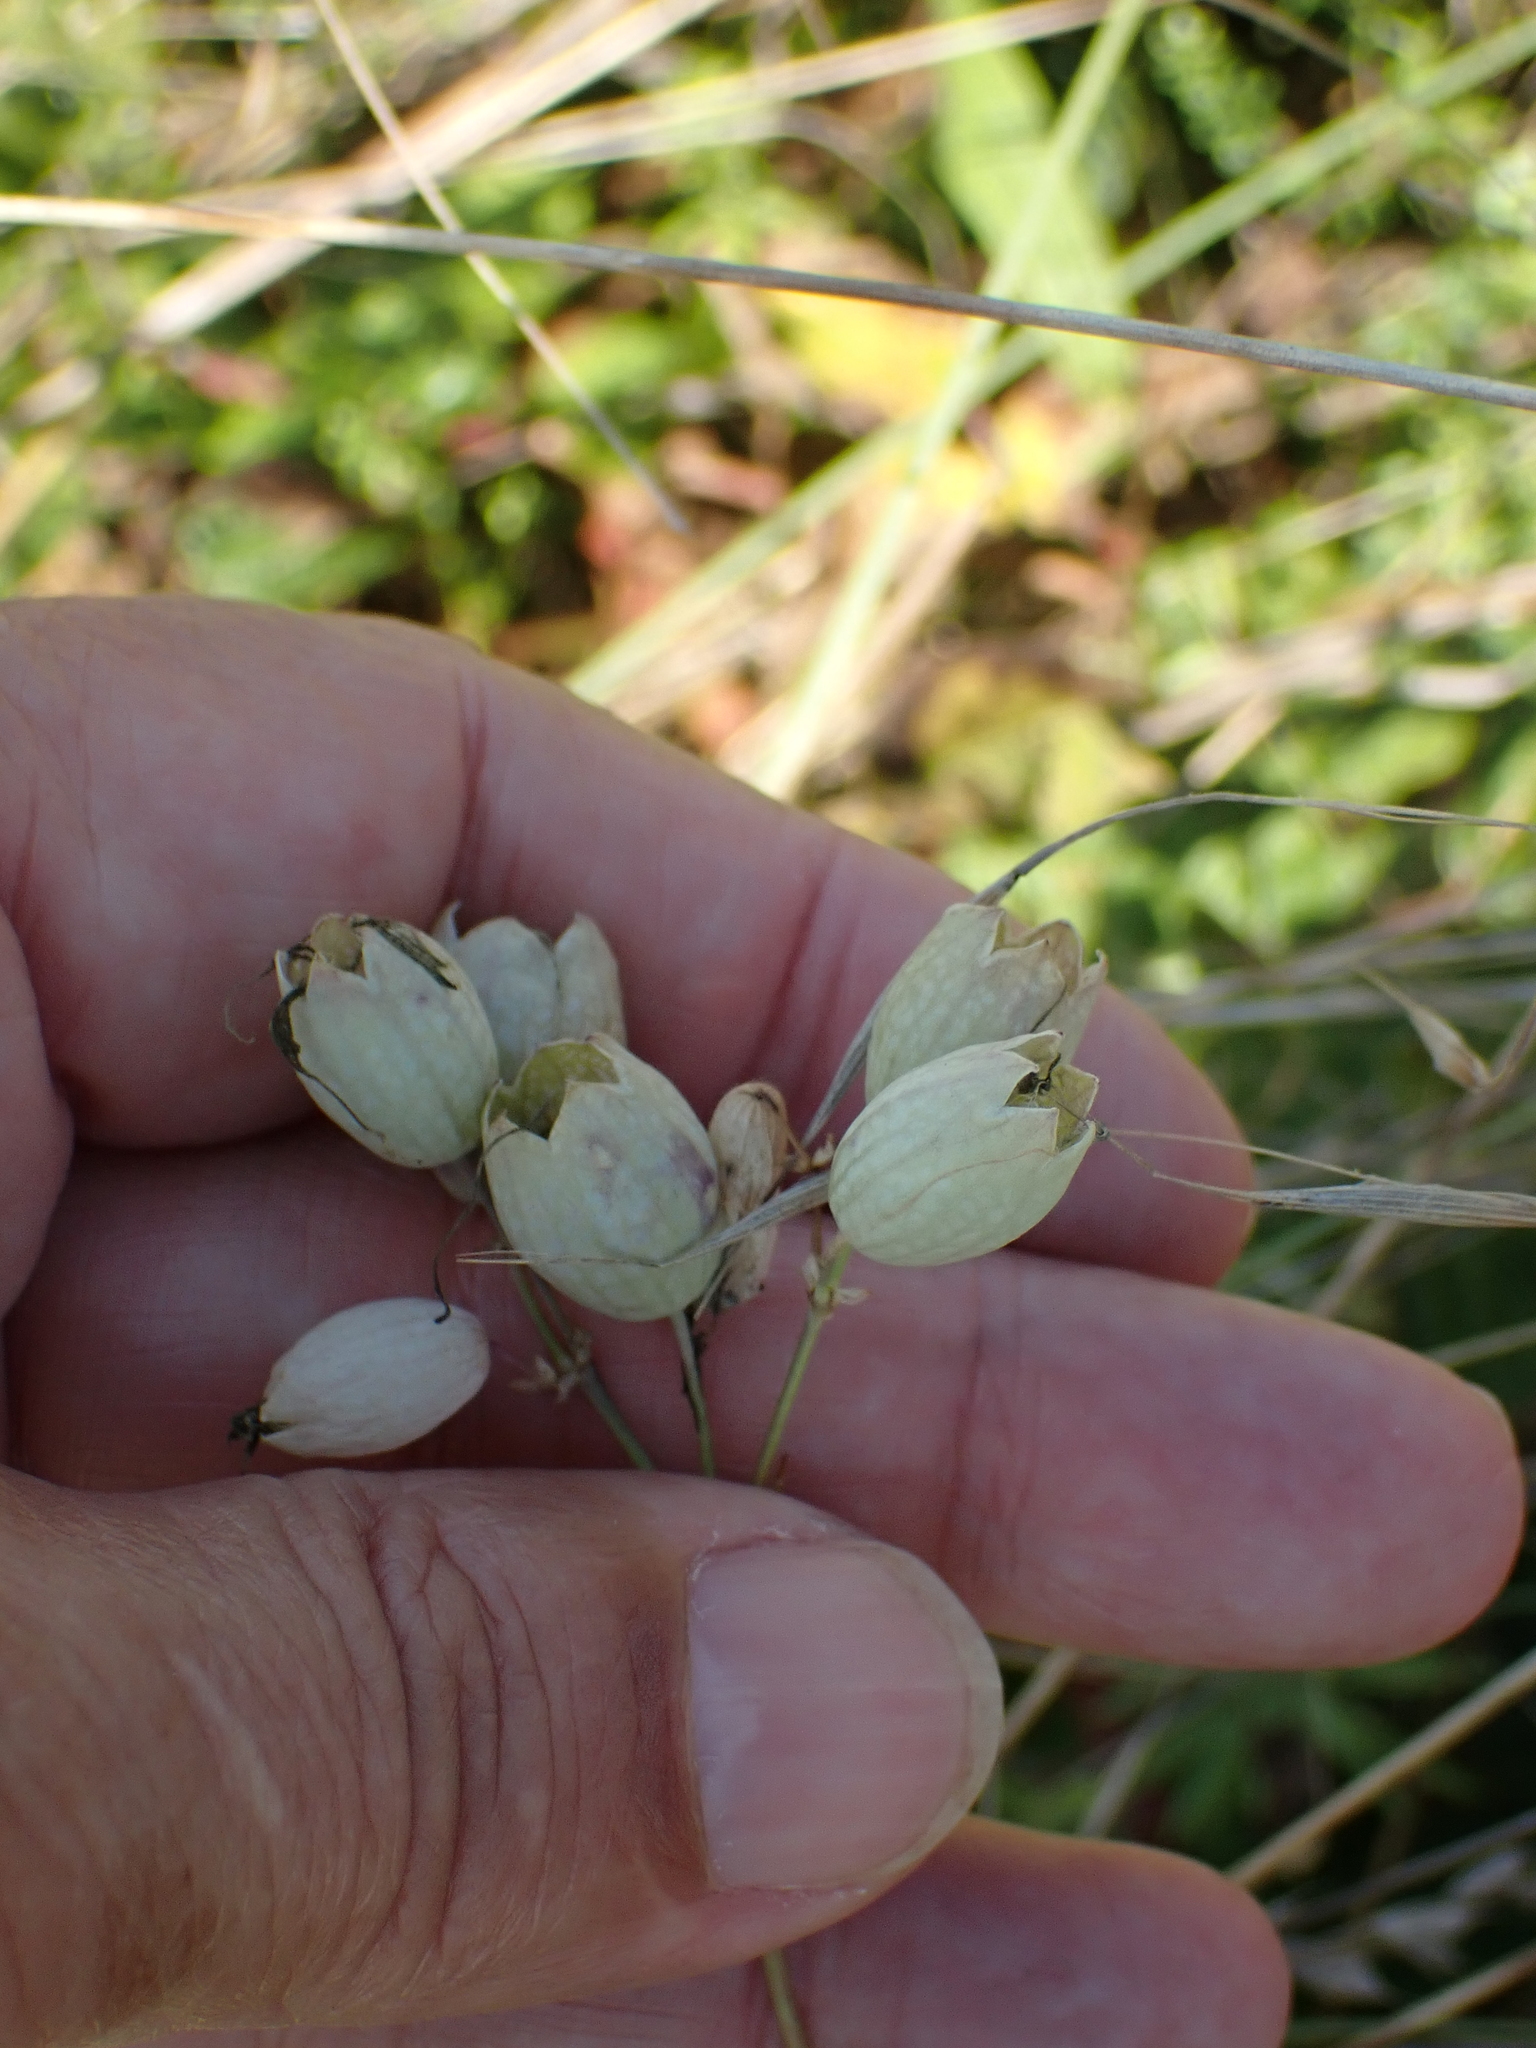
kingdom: Plantae
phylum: Tracheophyta
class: Magnoliopsida
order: Caryophyllales
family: Caryophyllaceae
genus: Silene
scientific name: Silene vulgaris
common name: Bladder campion
